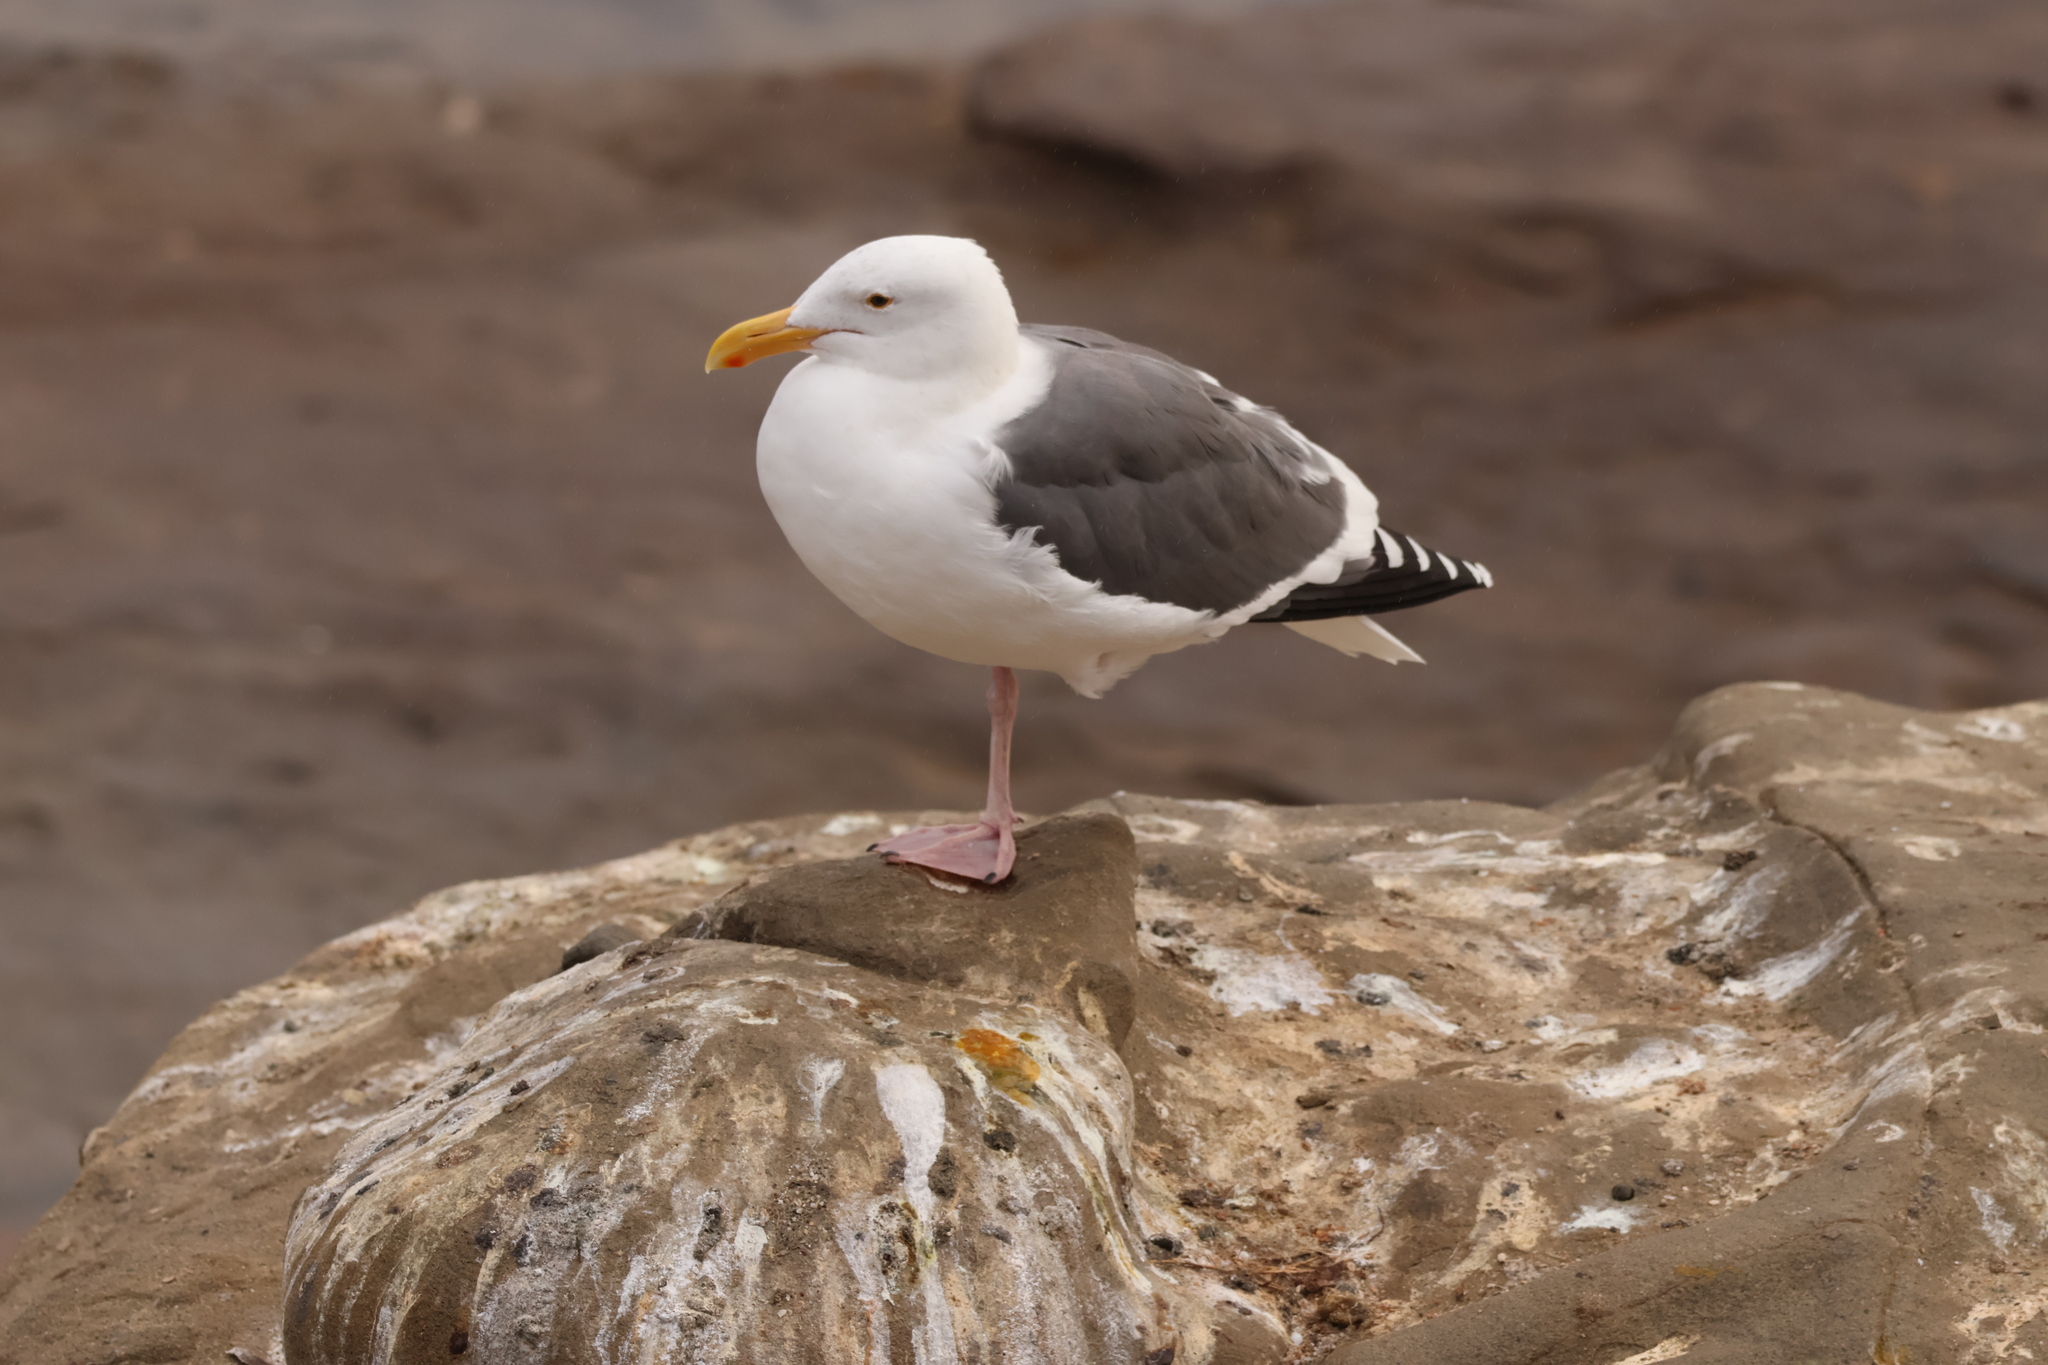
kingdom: Animalia
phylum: Chordata
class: Aves
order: Charadriiformes
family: Laridae
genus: Larus
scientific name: Larus occidentalis
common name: Western gull
